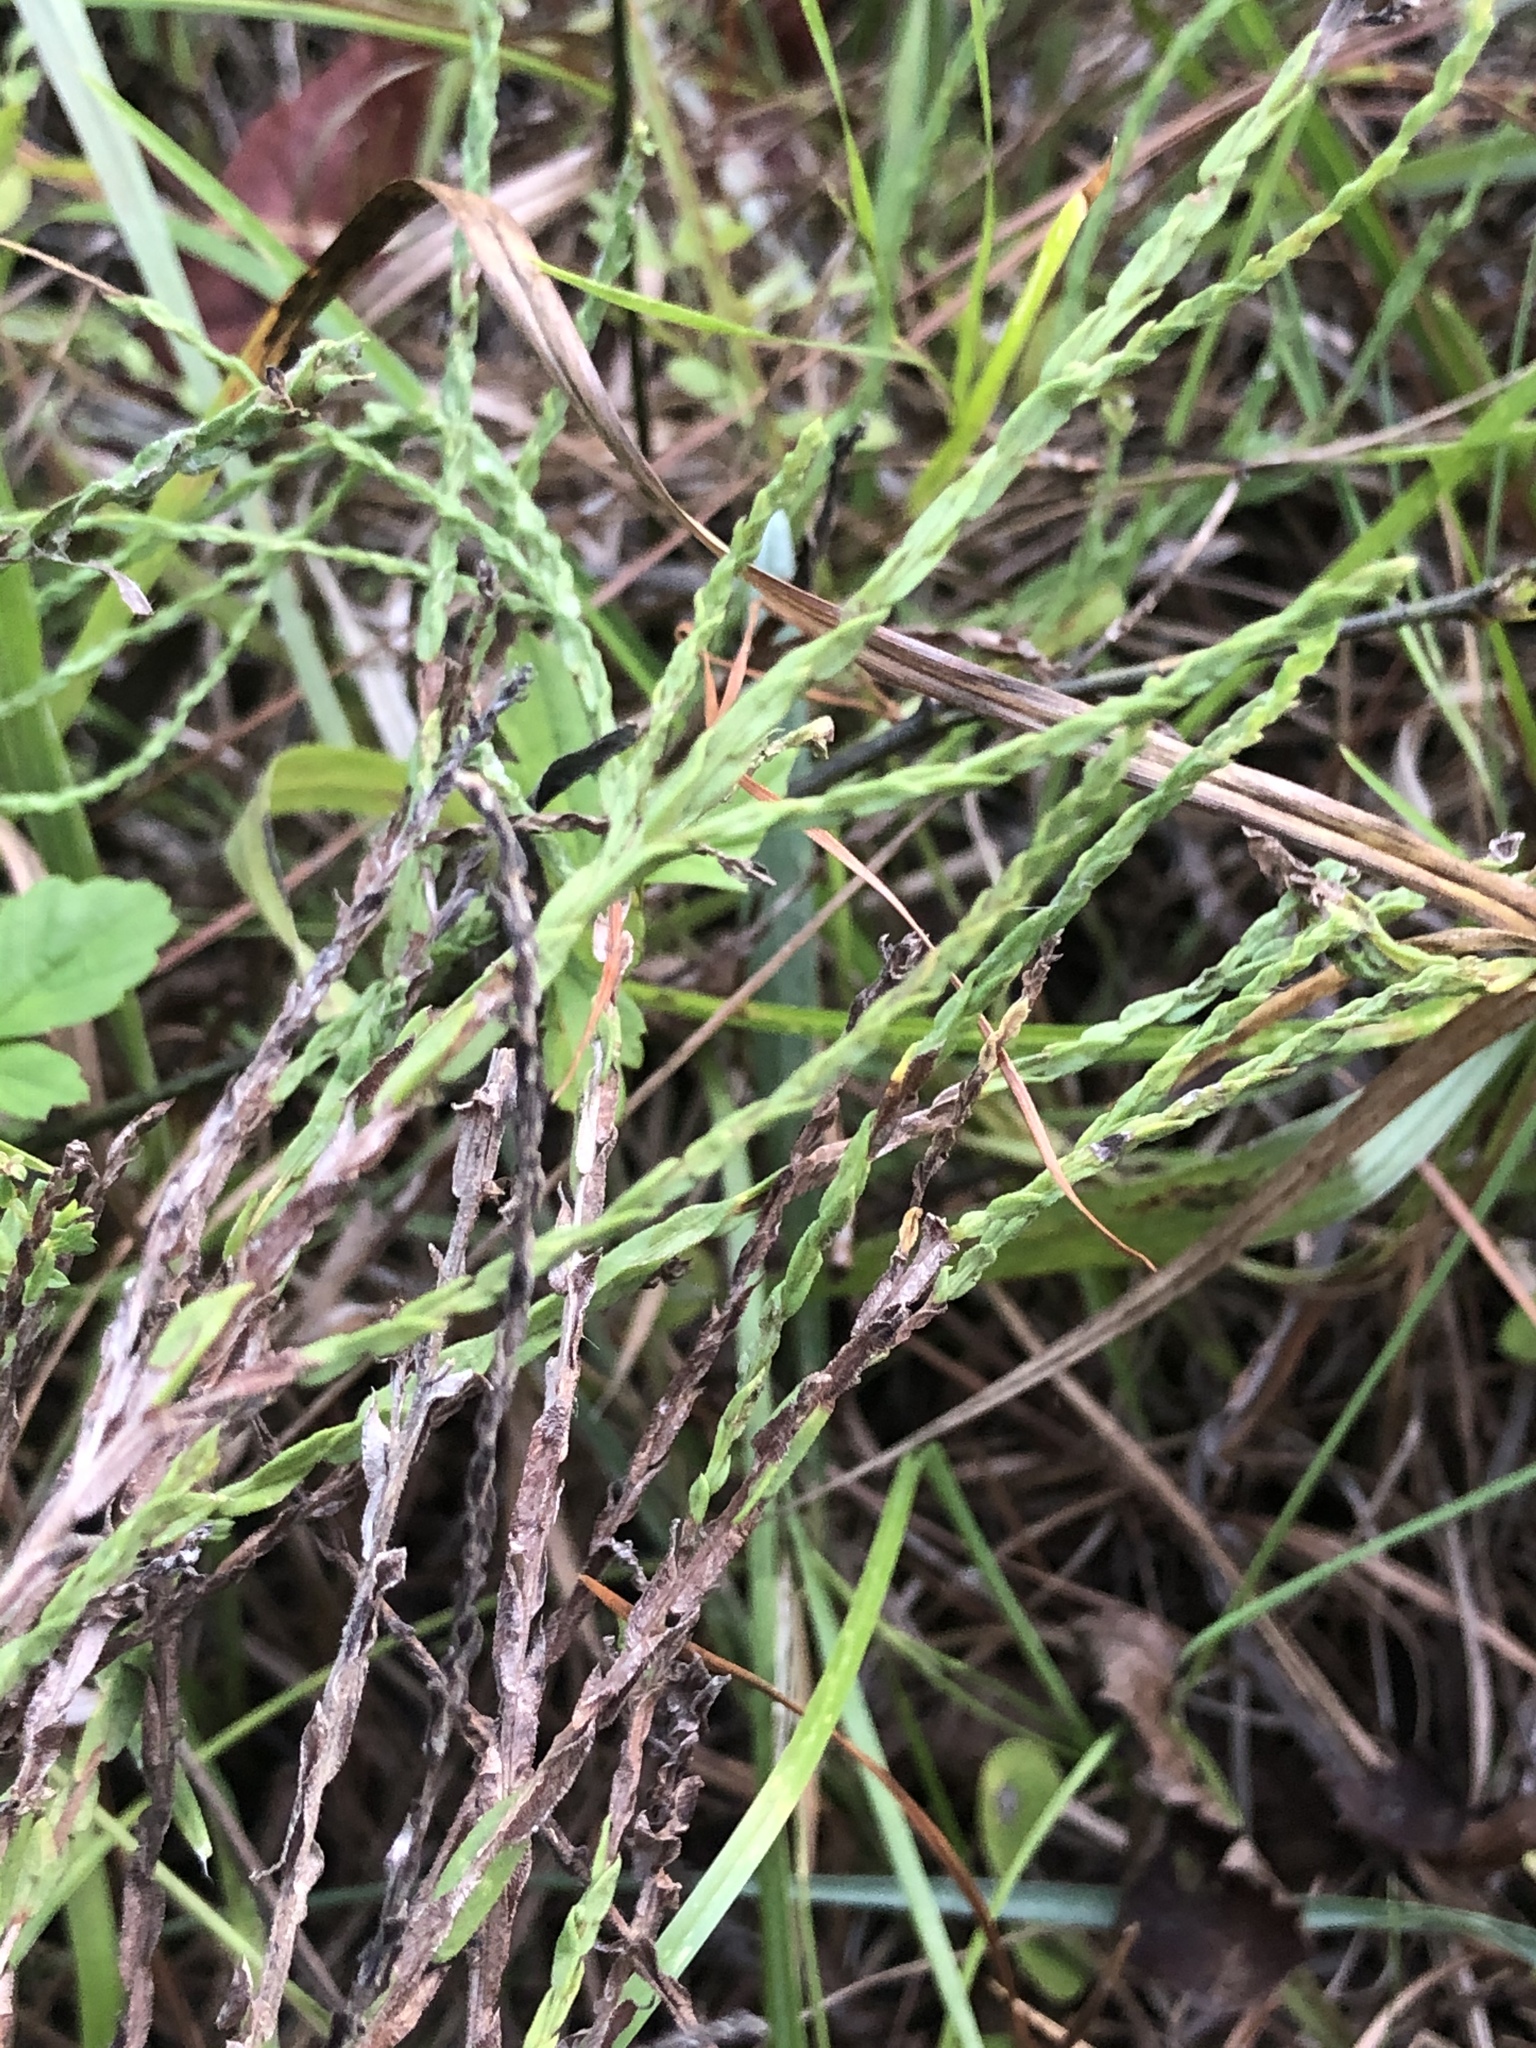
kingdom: Plantae
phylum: Tracheophyta
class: Magnoliopsida
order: Asterales
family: Asteraceae
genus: Symphyotrichum
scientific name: Symphyotrichum adnatum
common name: Scale-leaf aster
